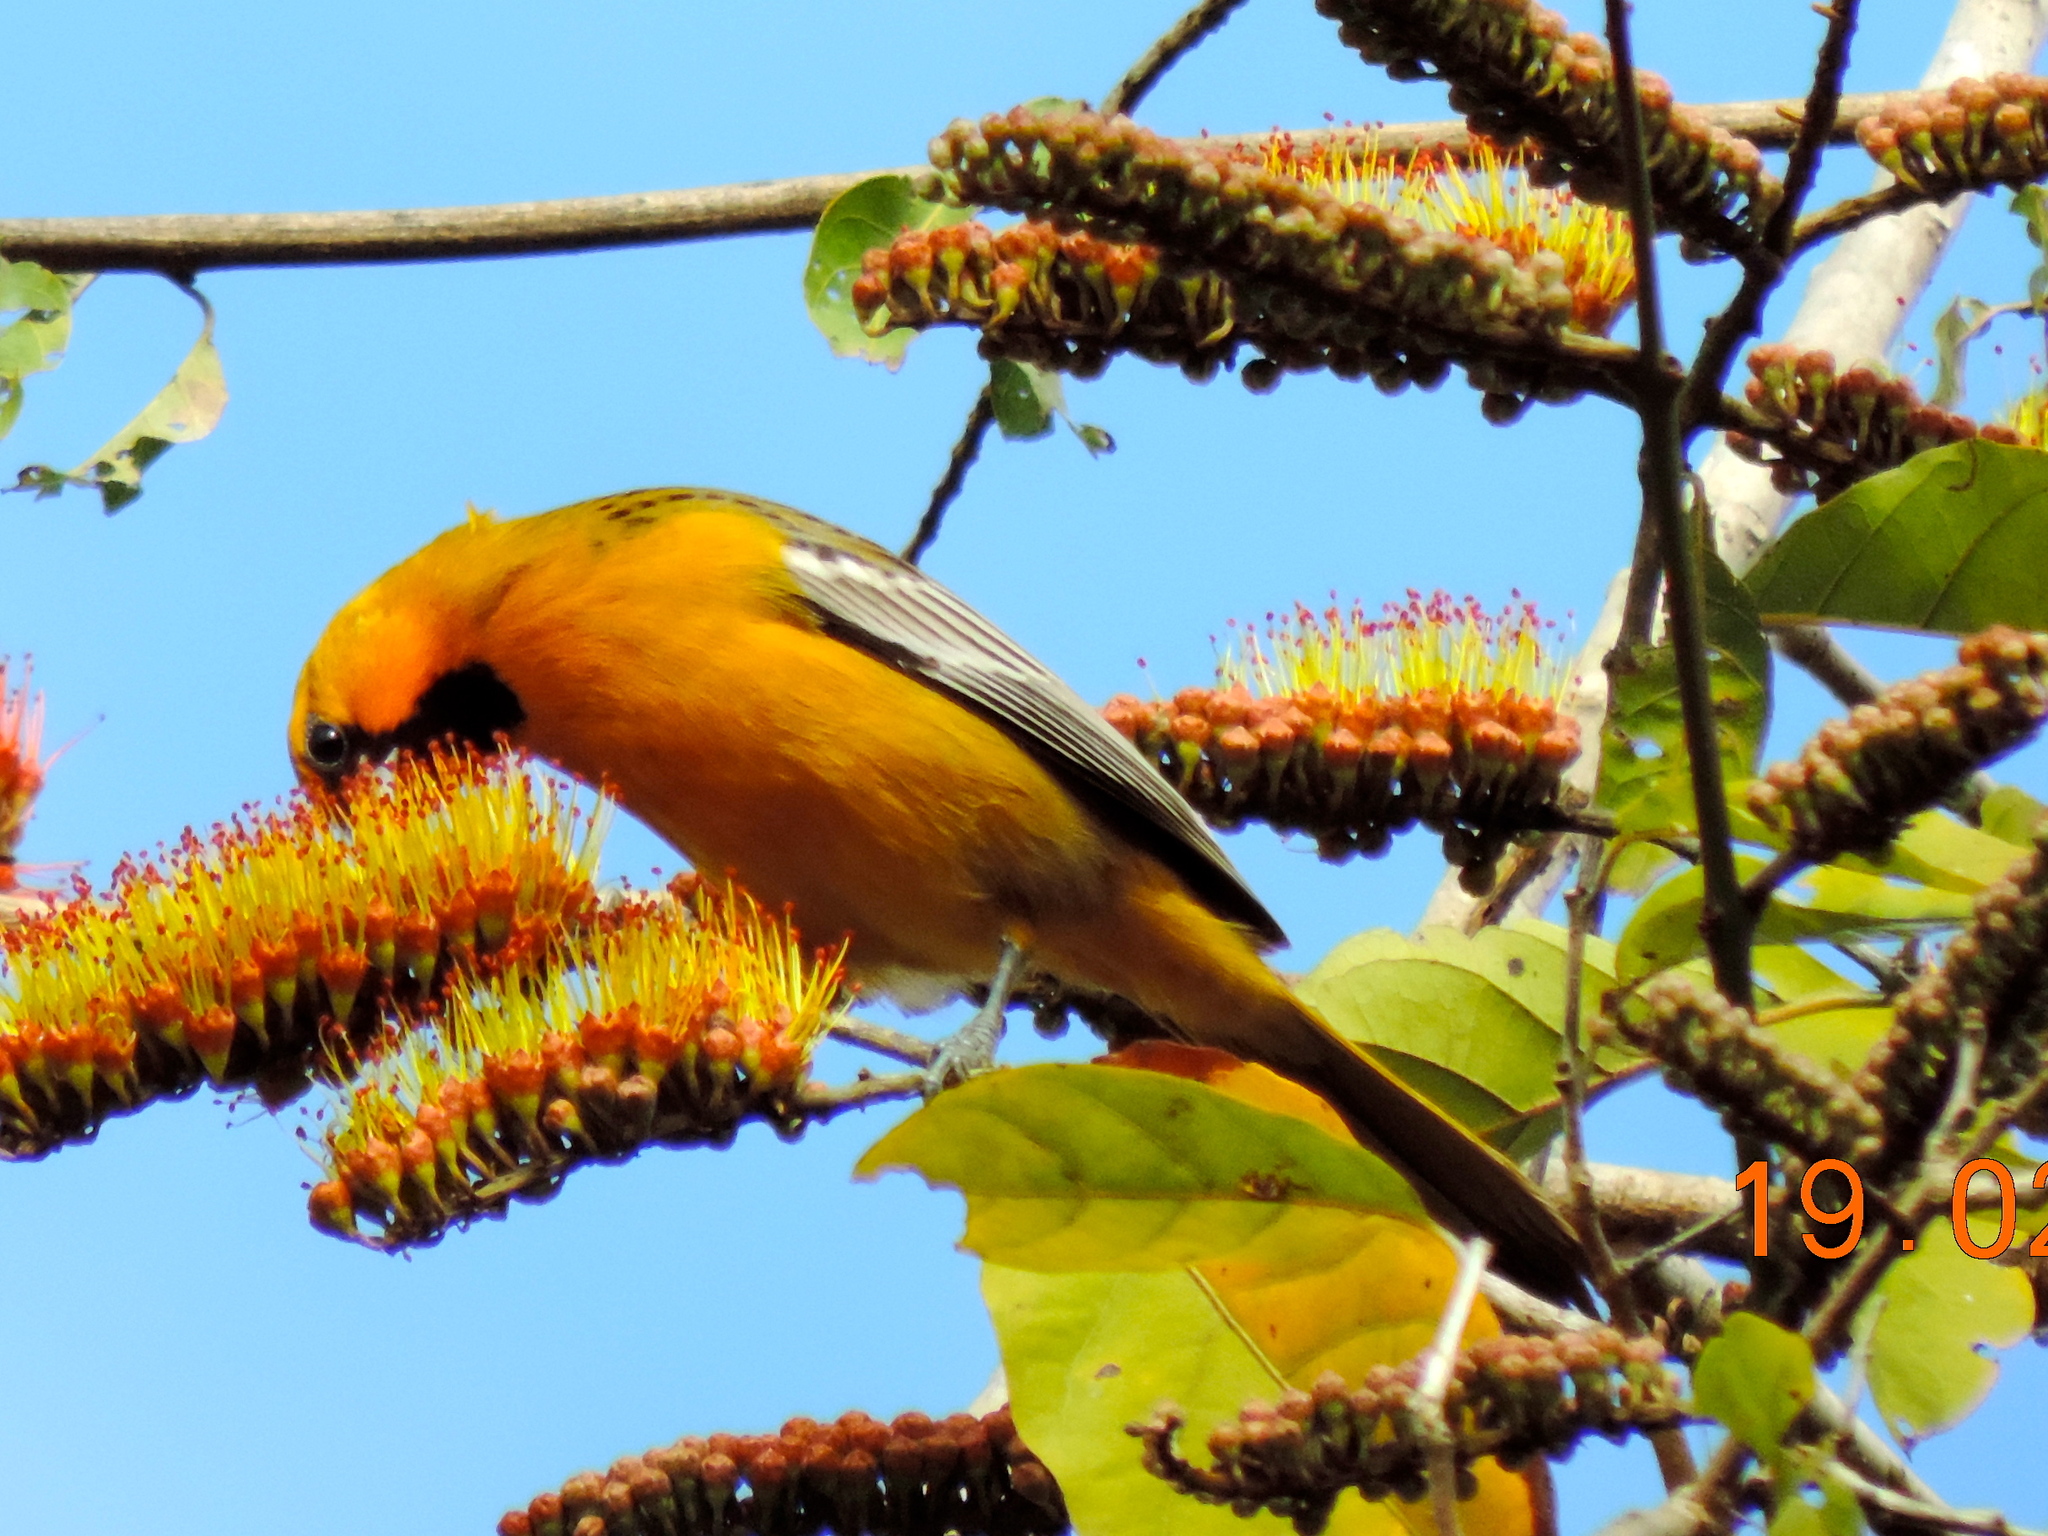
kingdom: Animalia
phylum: Chordata
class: Aves
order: Passeriformes
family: Icteridae
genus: Icterus
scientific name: Icterus pustulatus
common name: Streak-backed oriole
